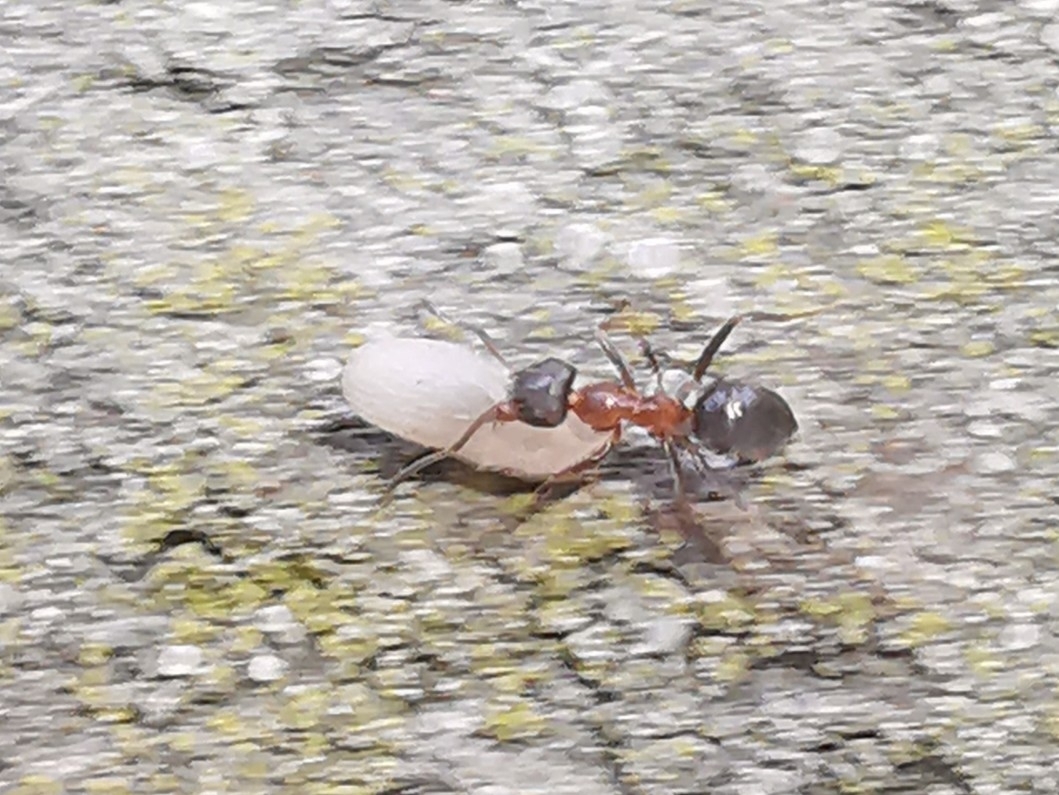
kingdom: Animalia
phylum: Arthropoda
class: Insecta
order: Hymenoptera
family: Formicidae
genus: Lasius
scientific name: Lasius emarginatus
